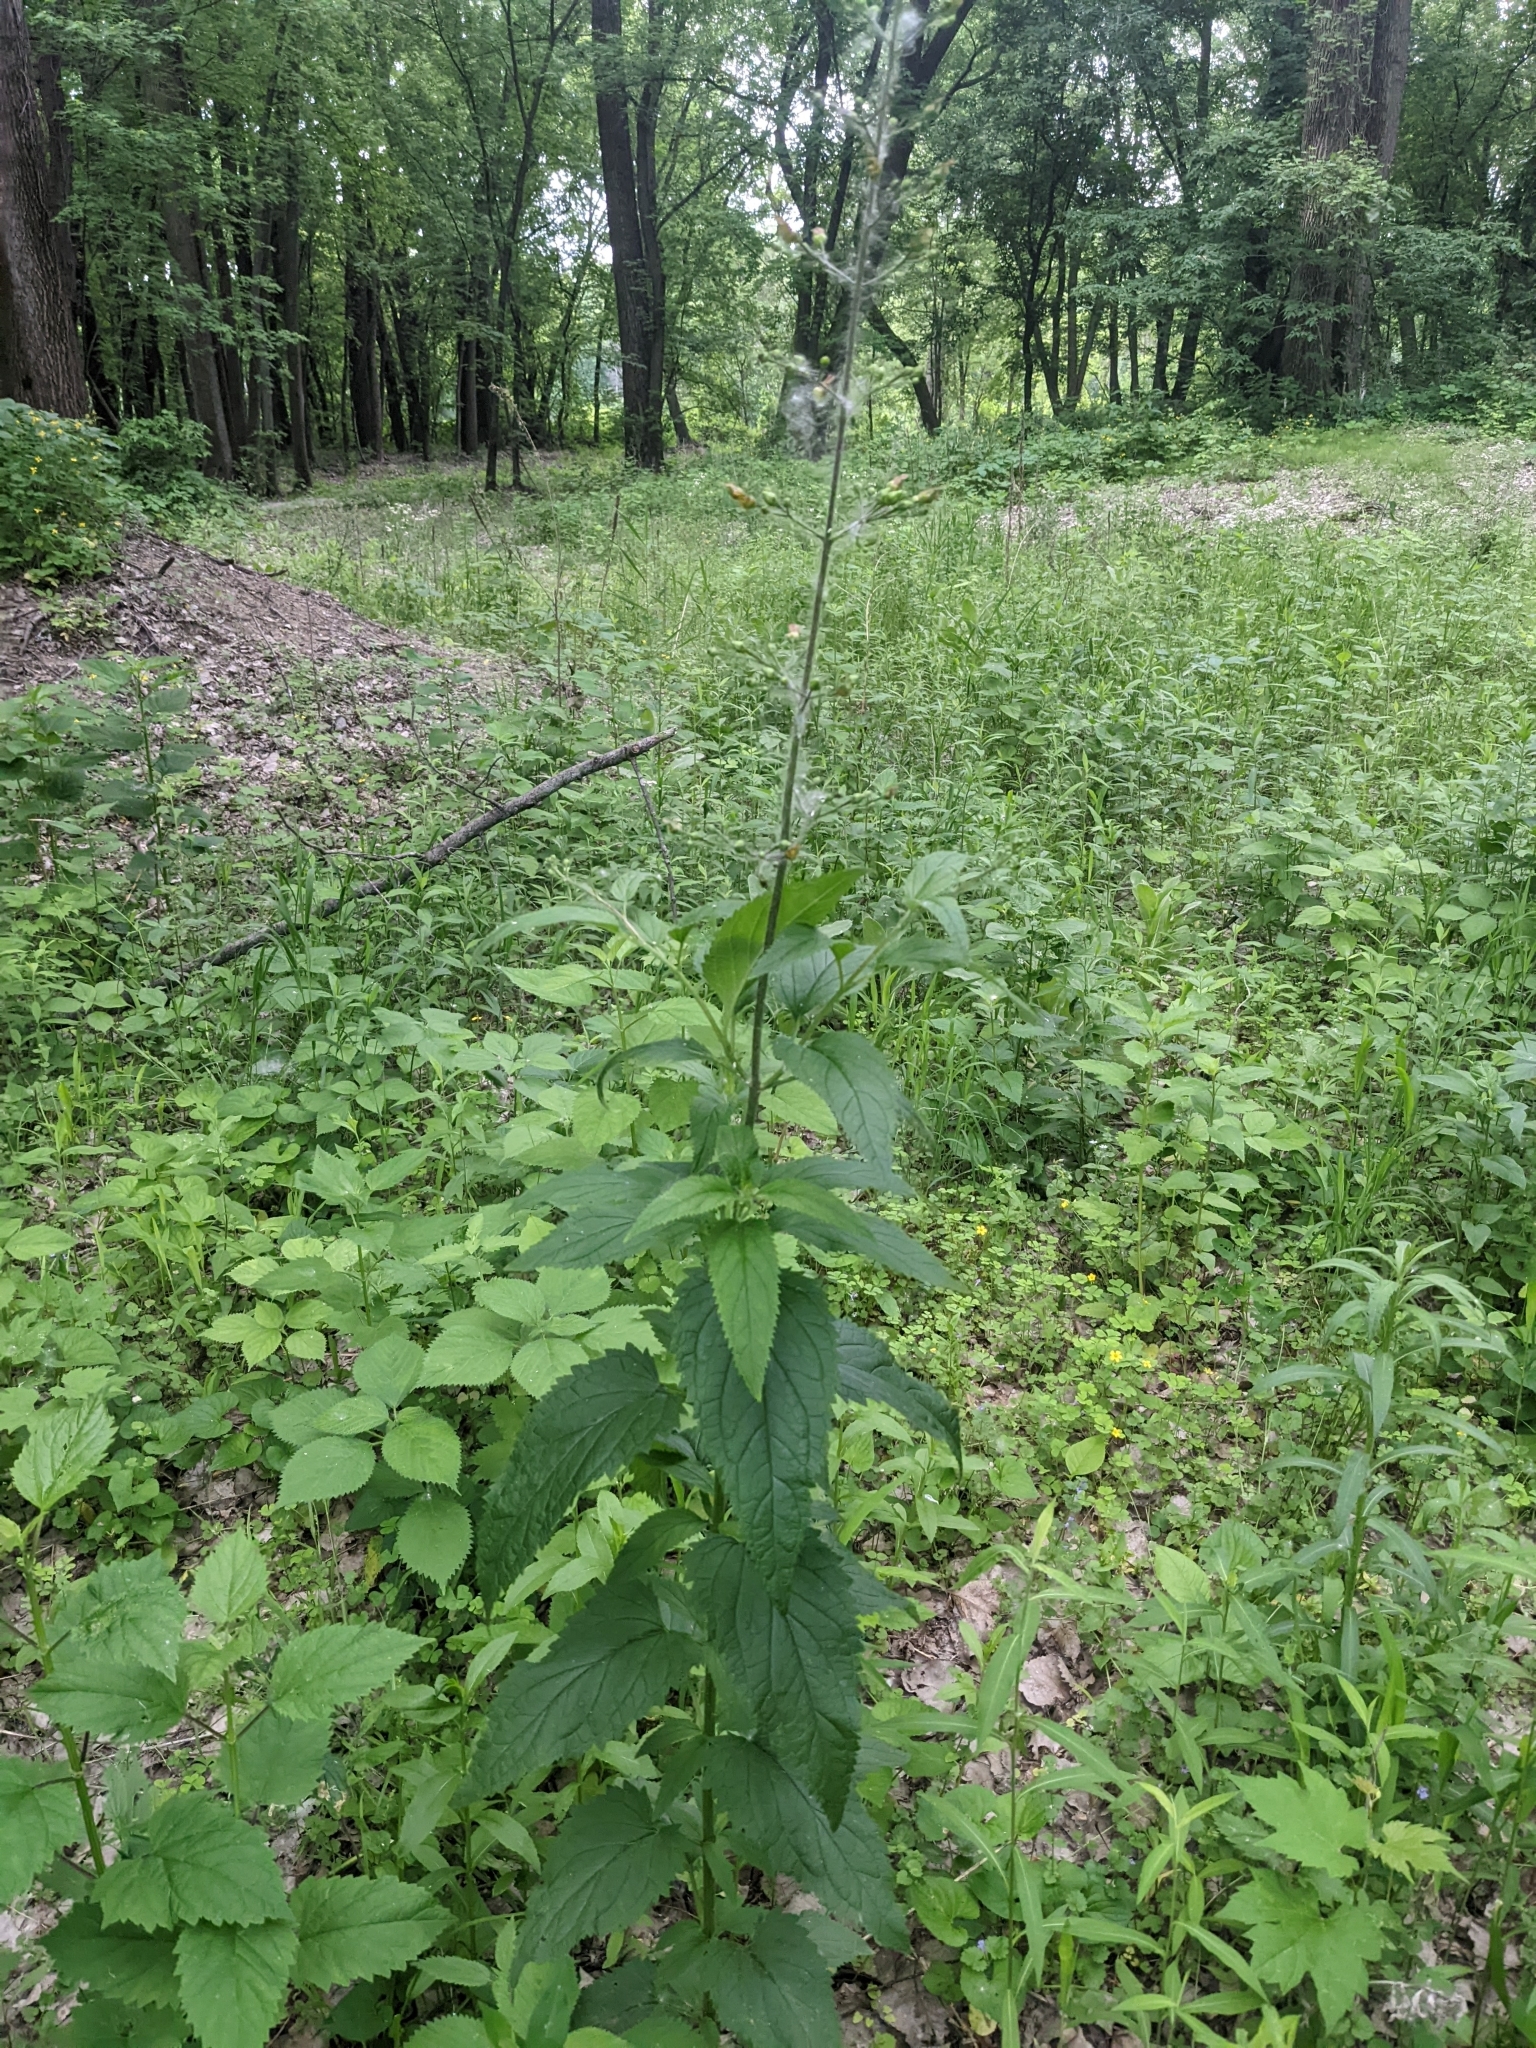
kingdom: Plantae
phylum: Tracheophyta
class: Magnoliopsida
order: Lamiales
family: Scrophulariaceae
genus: Scrophularia
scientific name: Scrophularia lanceolata
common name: American figwort
